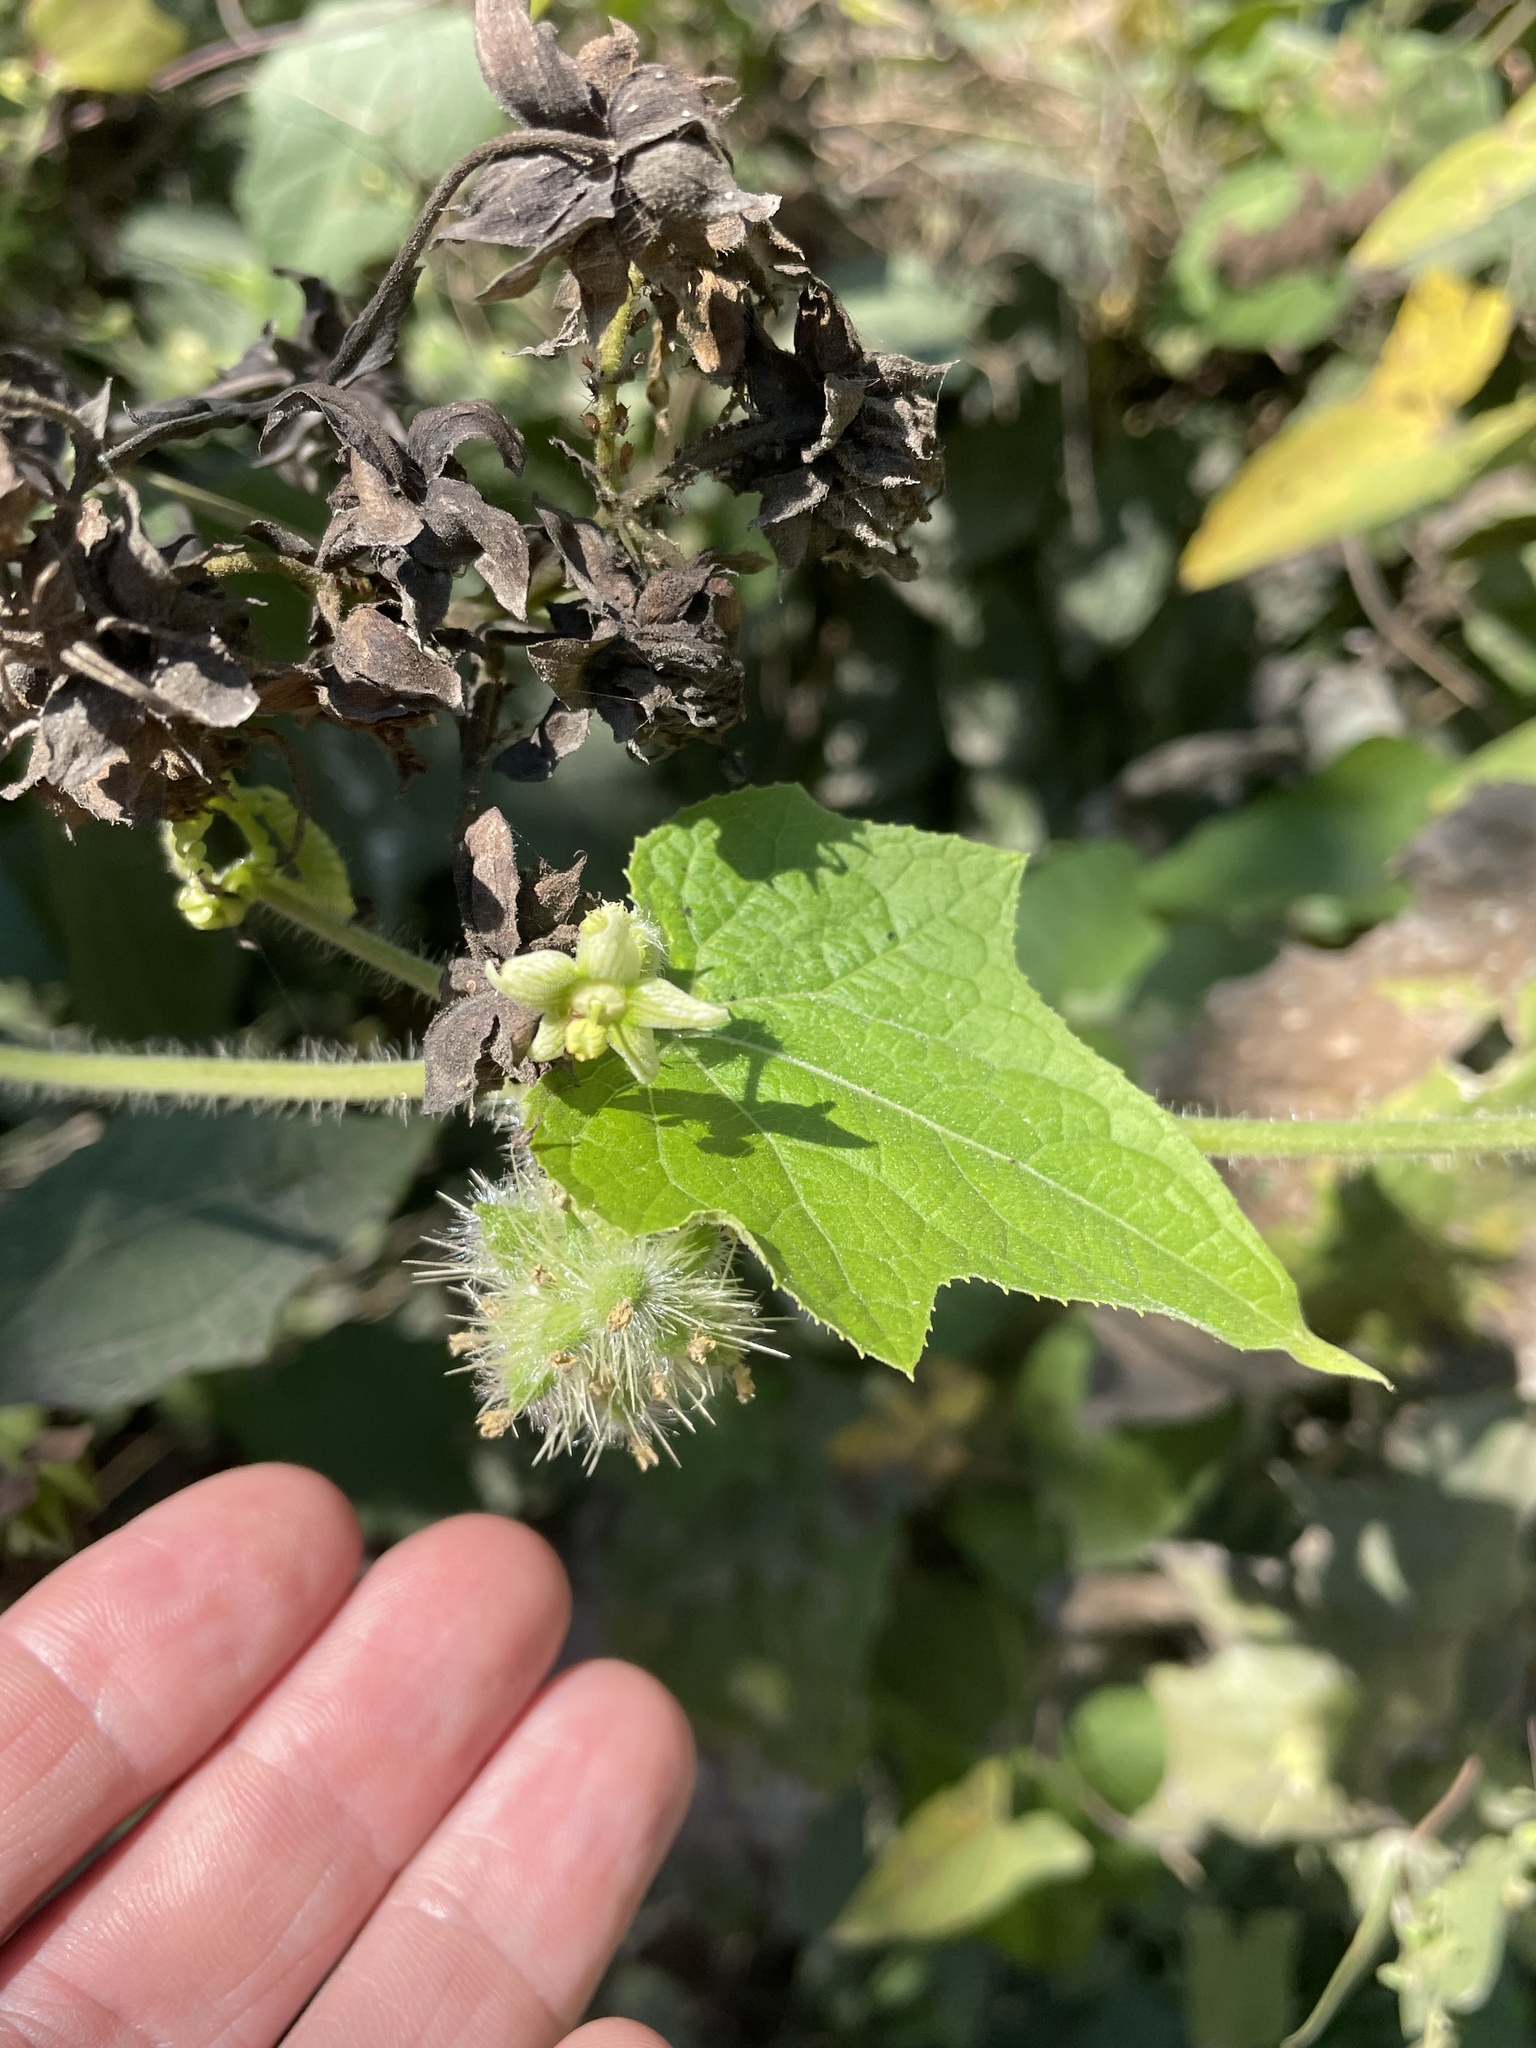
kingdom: Plantae
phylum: Tracheophyta
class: Magnoliopsida
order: Cucurbitales
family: Cucurbitaceae
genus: Sicyos
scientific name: Sicyos angulatus
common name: Angled burr cucumber
